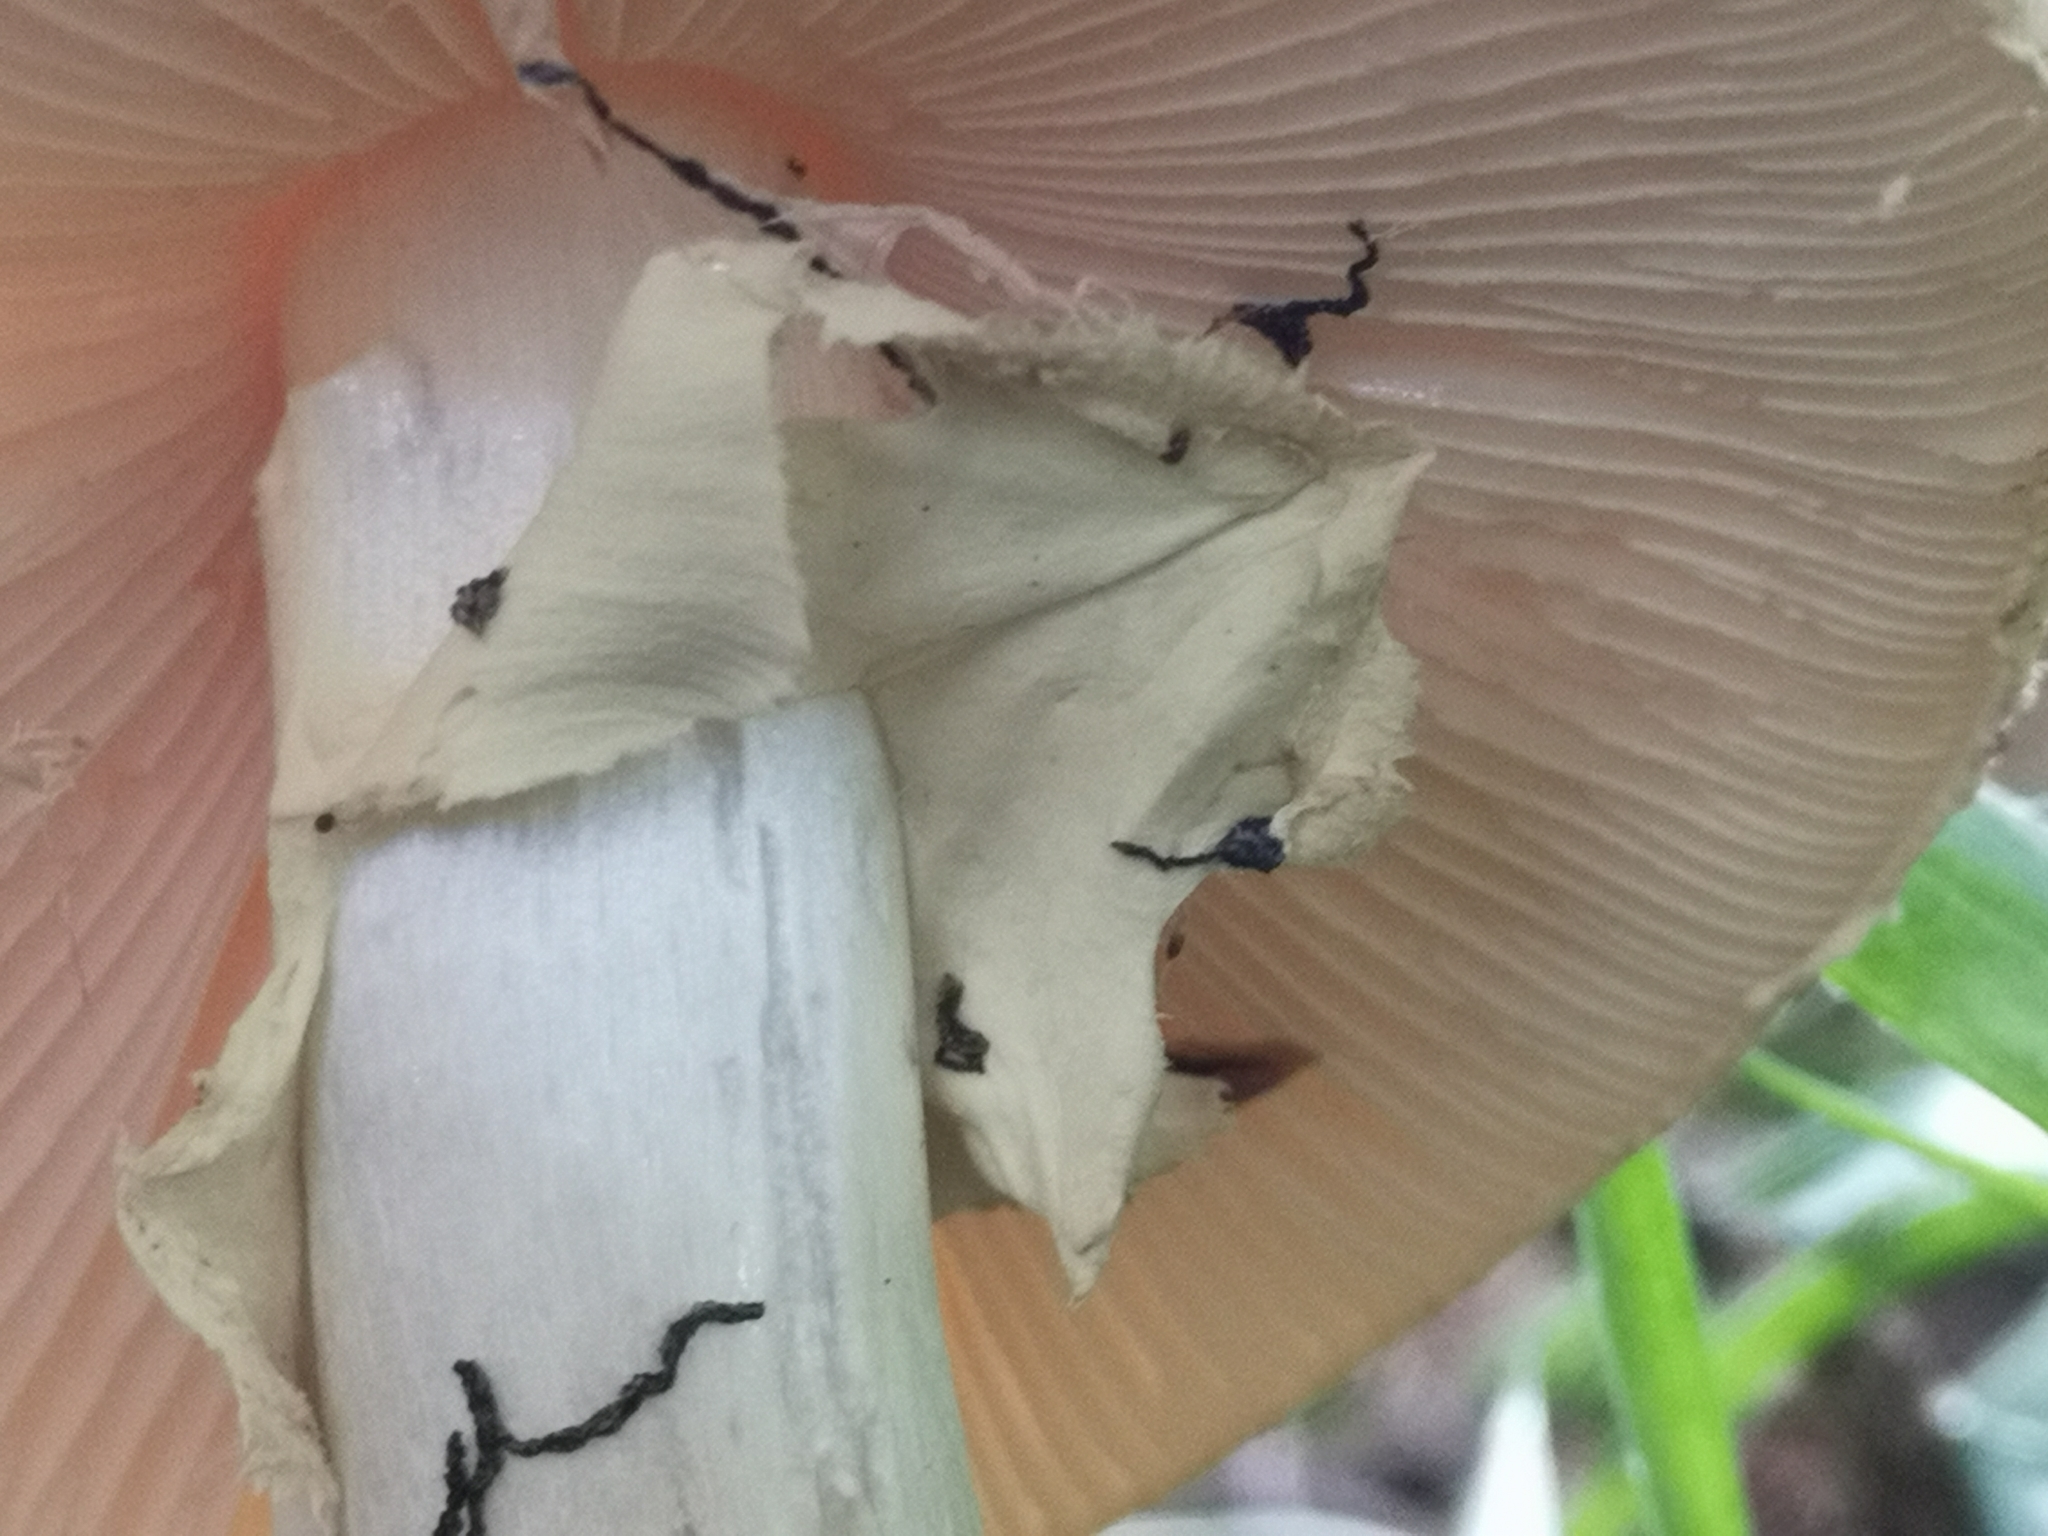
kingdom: Fungi
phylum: Basidiomycota
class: Agaricomycetes
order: Agaricales
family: Amanitaceae
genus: Amanita
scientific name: Amanita citrina
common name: False death-cap
